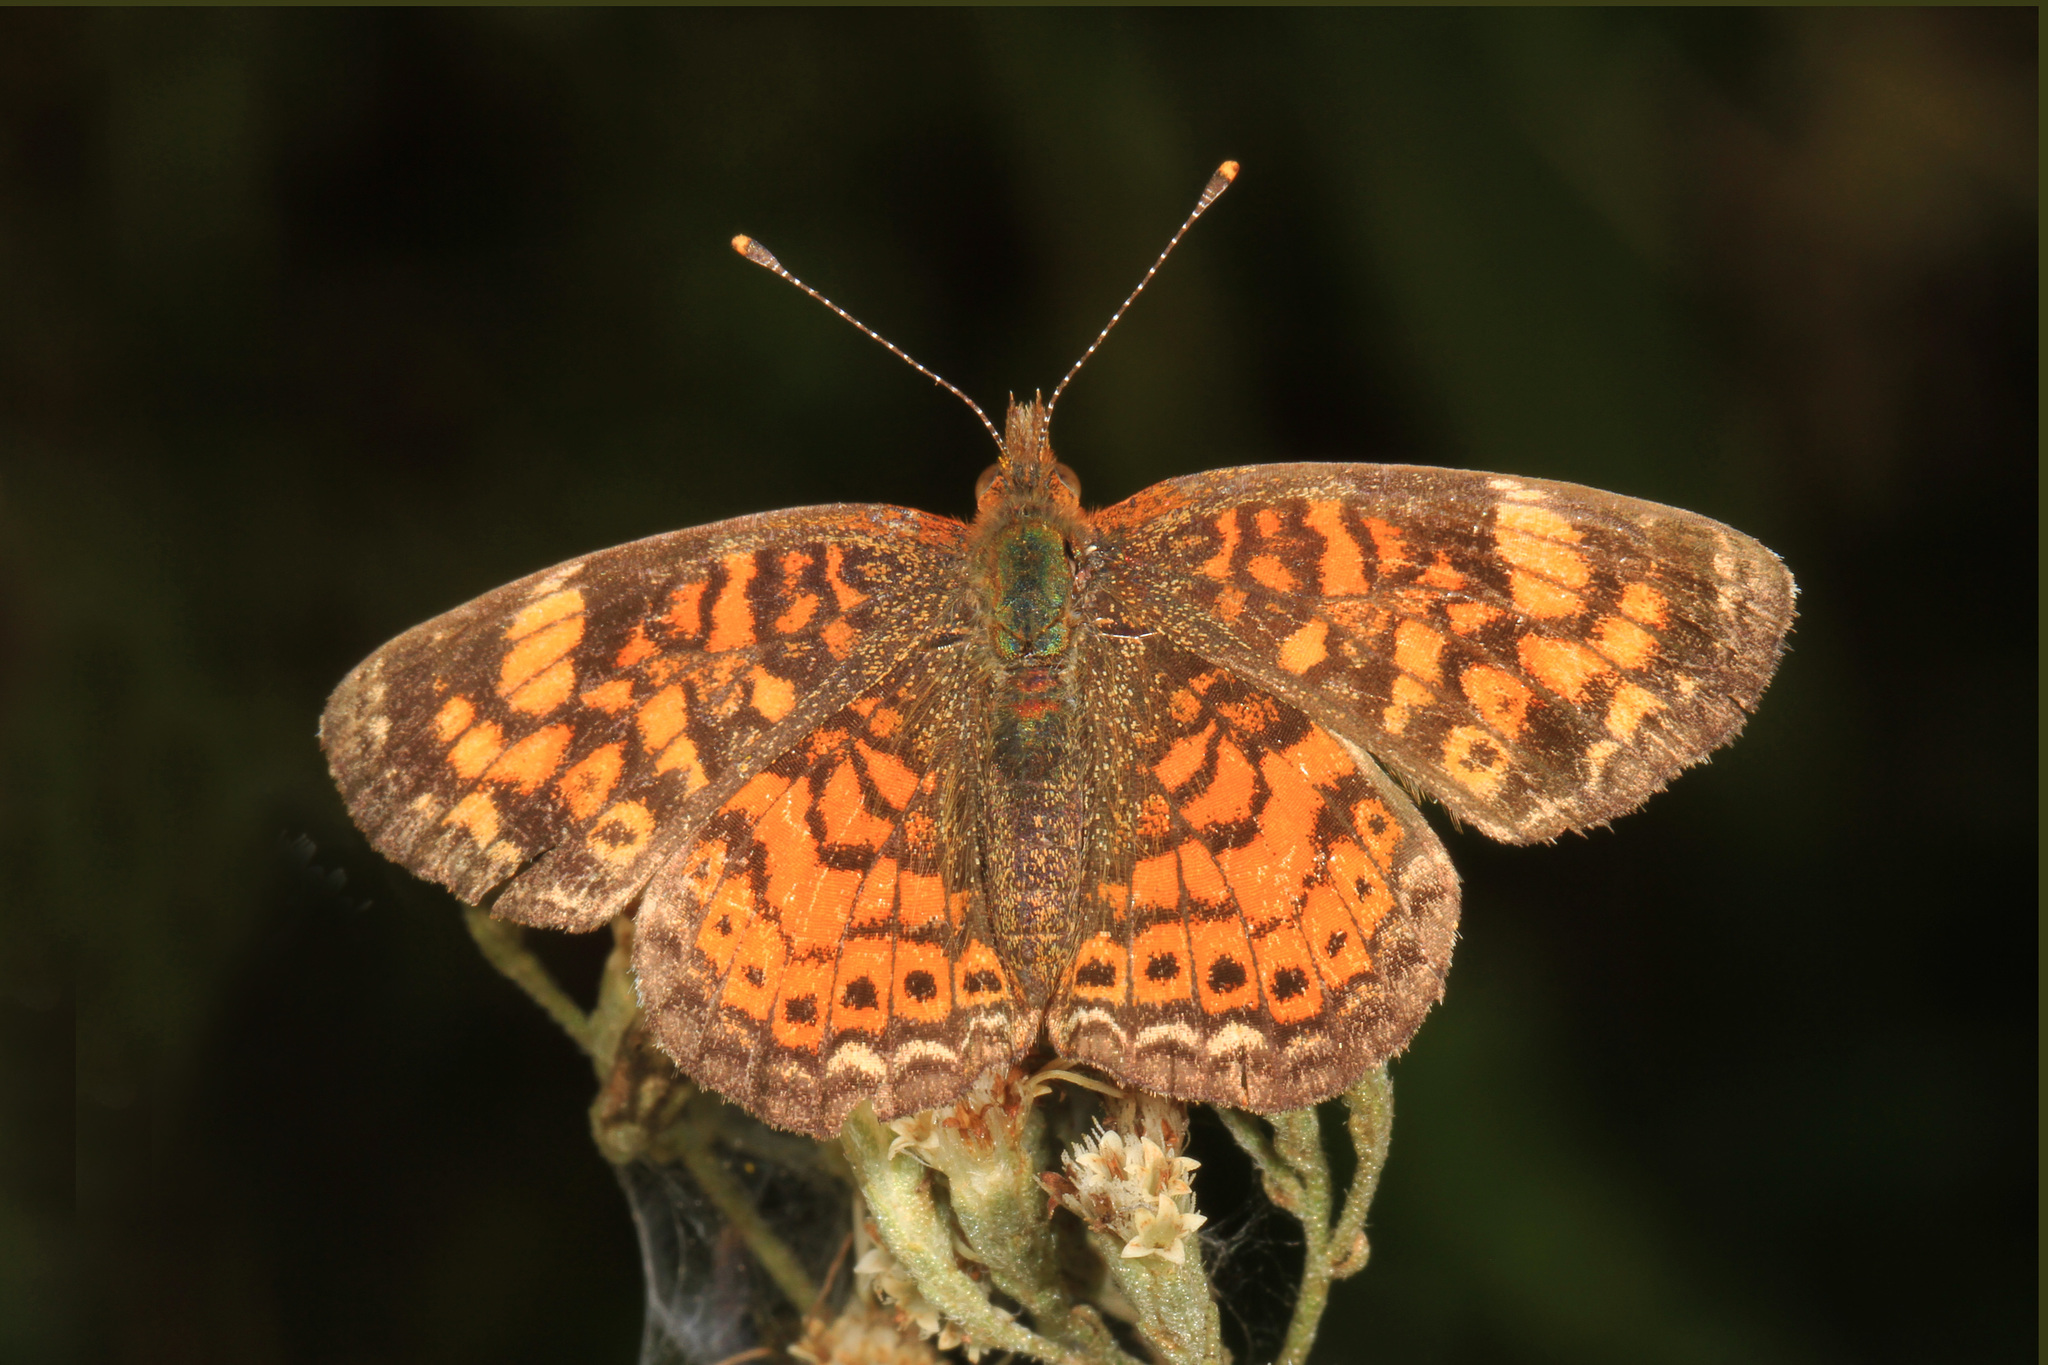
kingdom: Animalia
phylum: Arthropoda
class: Insecta
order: Lepidoptera
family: Nymphalidae
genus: Phyciodes
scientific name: Phyciodes tharos
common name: Pearl crescent
